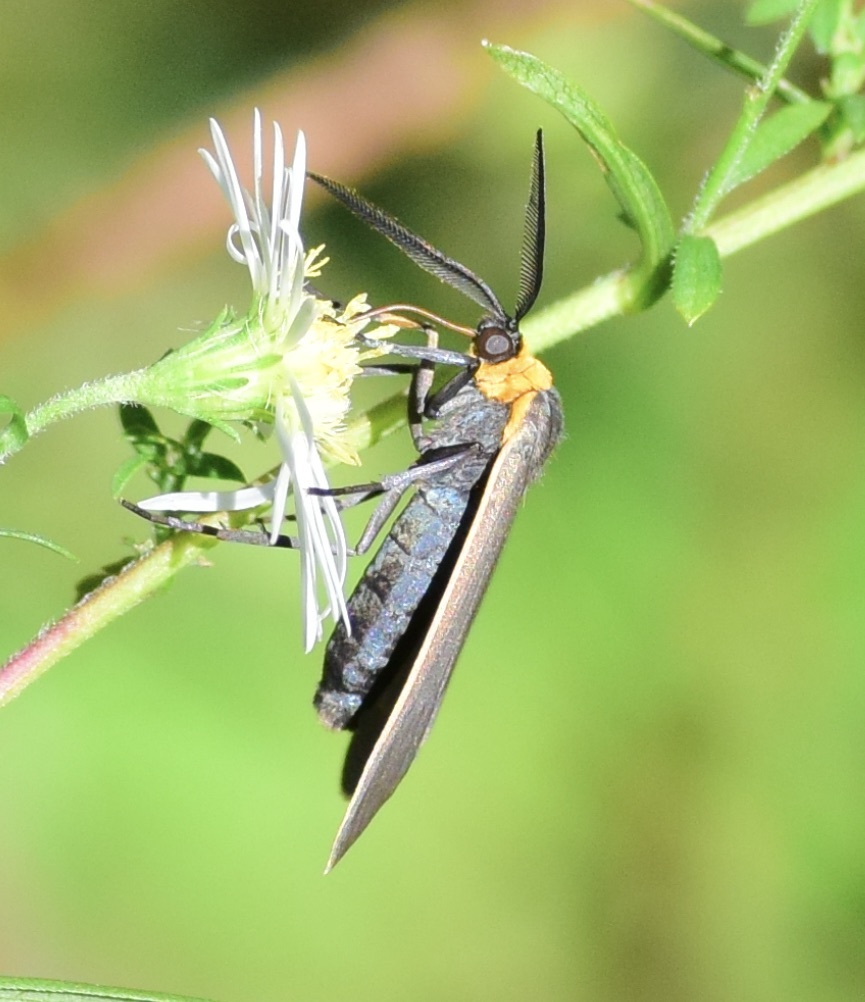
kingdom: Animalia
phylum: Arthropoda
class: Insecta
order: Lepidoptera
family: Erebidae
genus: Cisseps
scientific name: Cisseps fulvicollis
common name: Yellow-collared scape moth
